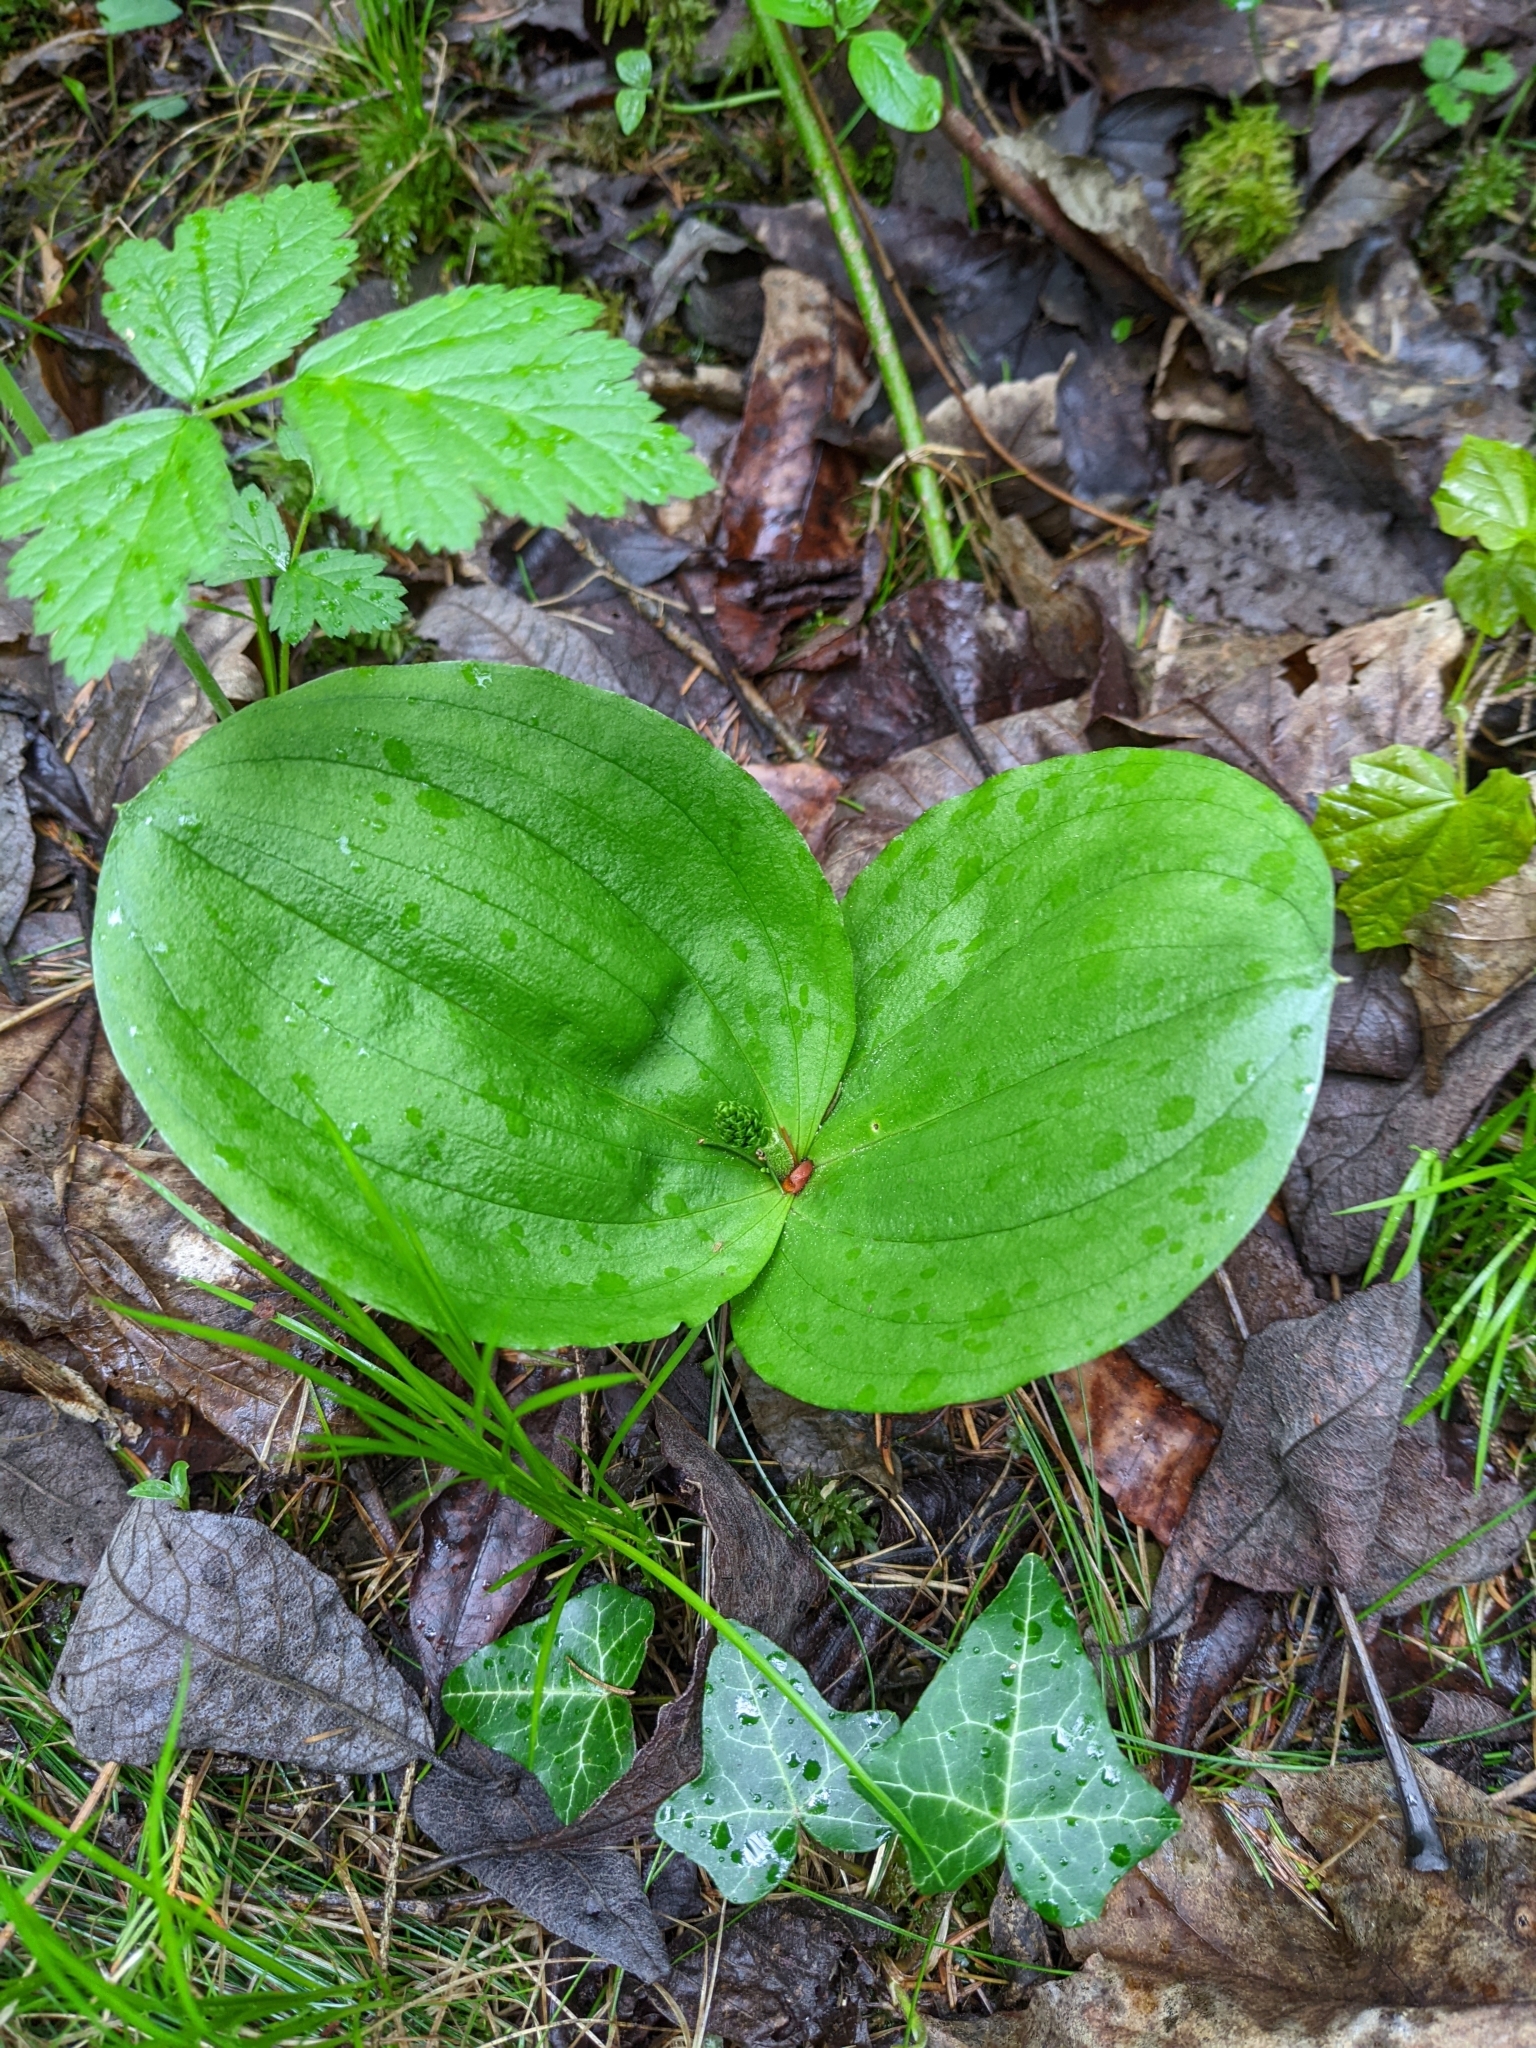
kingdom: Plantae
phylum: Tracheophyta
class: Liliopsida
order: Asparagales
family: Orchidaceae
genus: Neottia
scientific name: Neottia ovata
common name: Common twayblade
